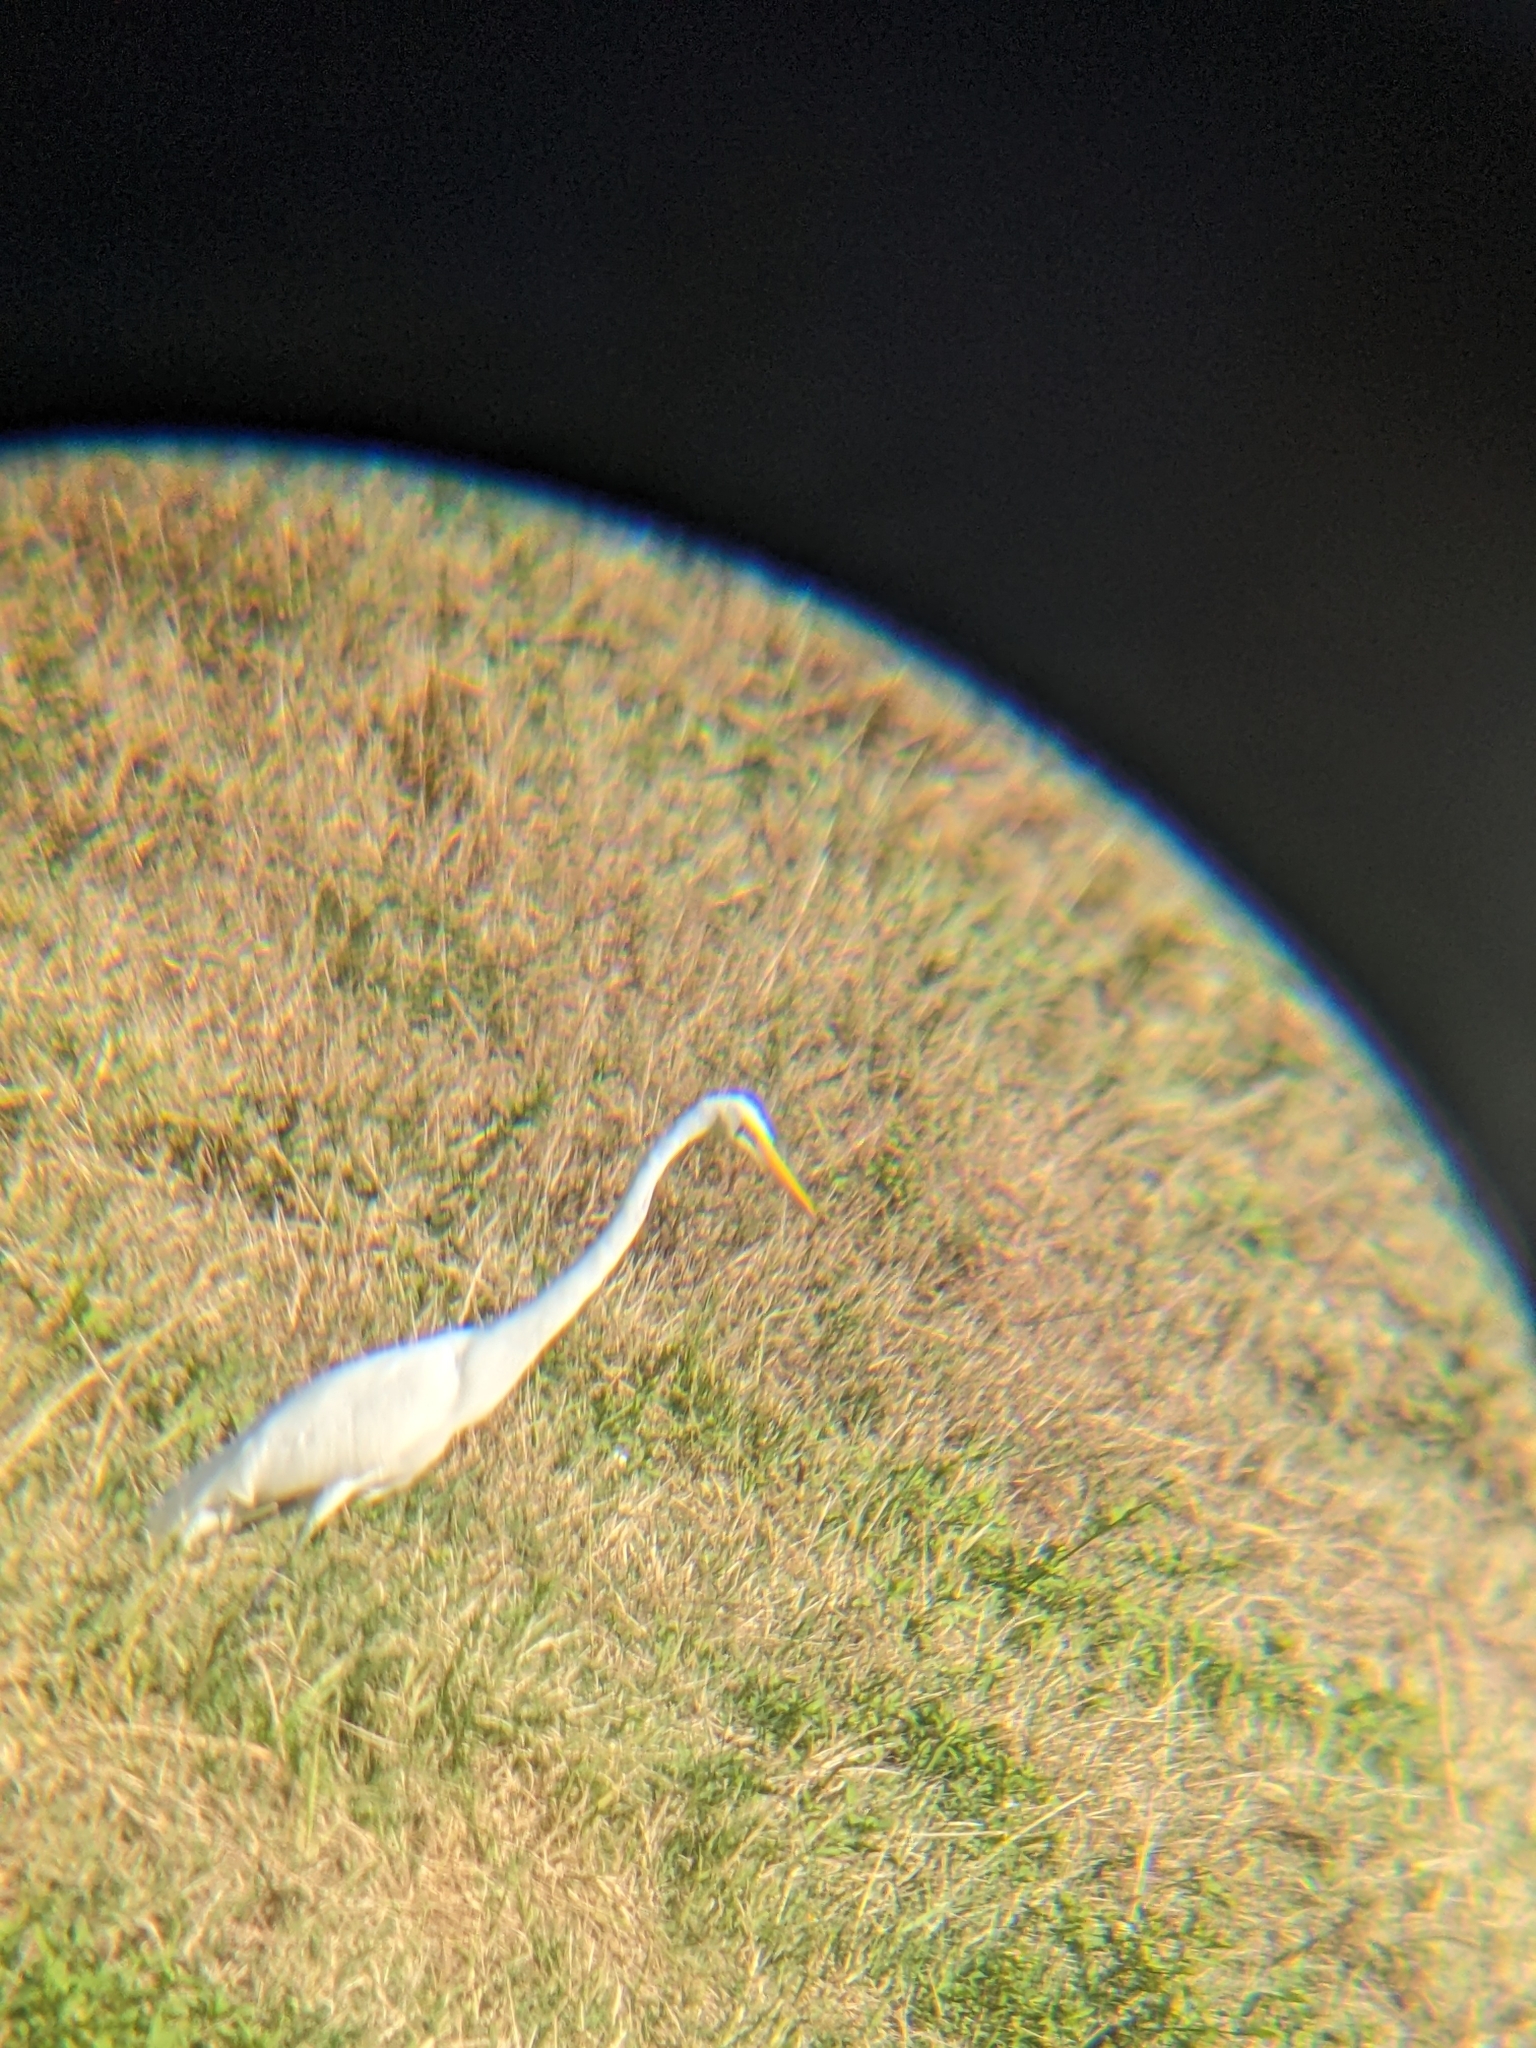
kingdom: Animalia
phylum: Chordata
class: Aves
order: Pelecaniformes
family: Ardeidae
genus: Ardea
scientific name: Ardea alba
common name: Great egret
